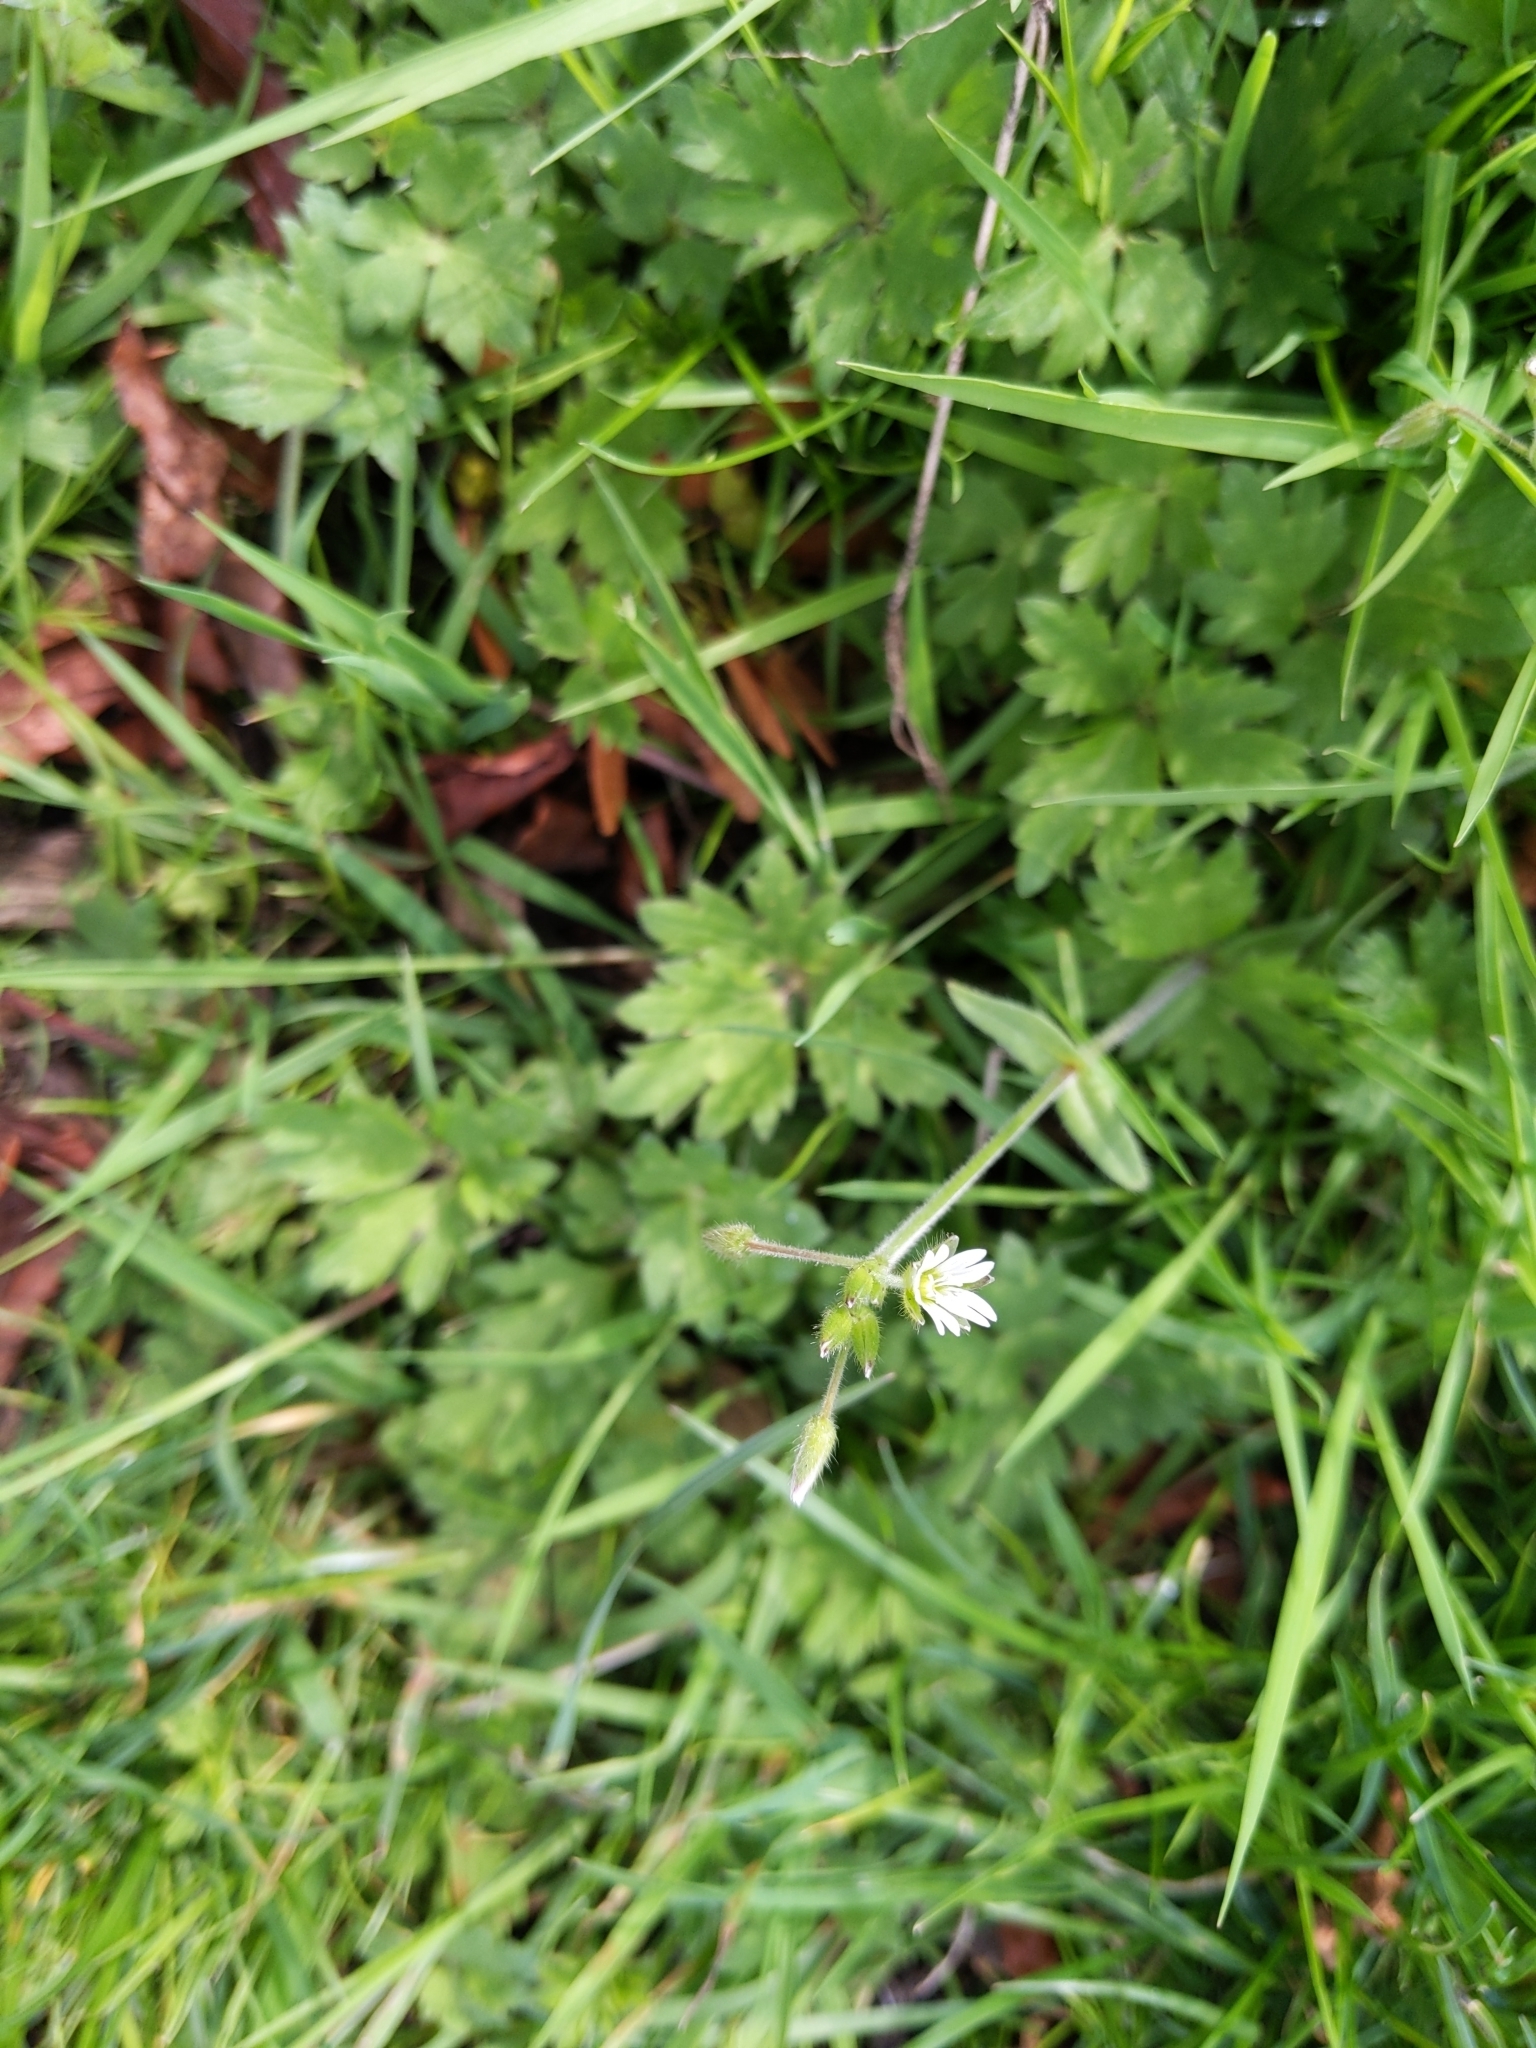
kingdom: Plantae
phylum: Tracheophyta
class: Magnoliopsida
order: Caryophyllales
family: Caryophyllaceae
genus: Cerastium
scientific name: Cerastium fontanum
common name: Common mouse-ear
